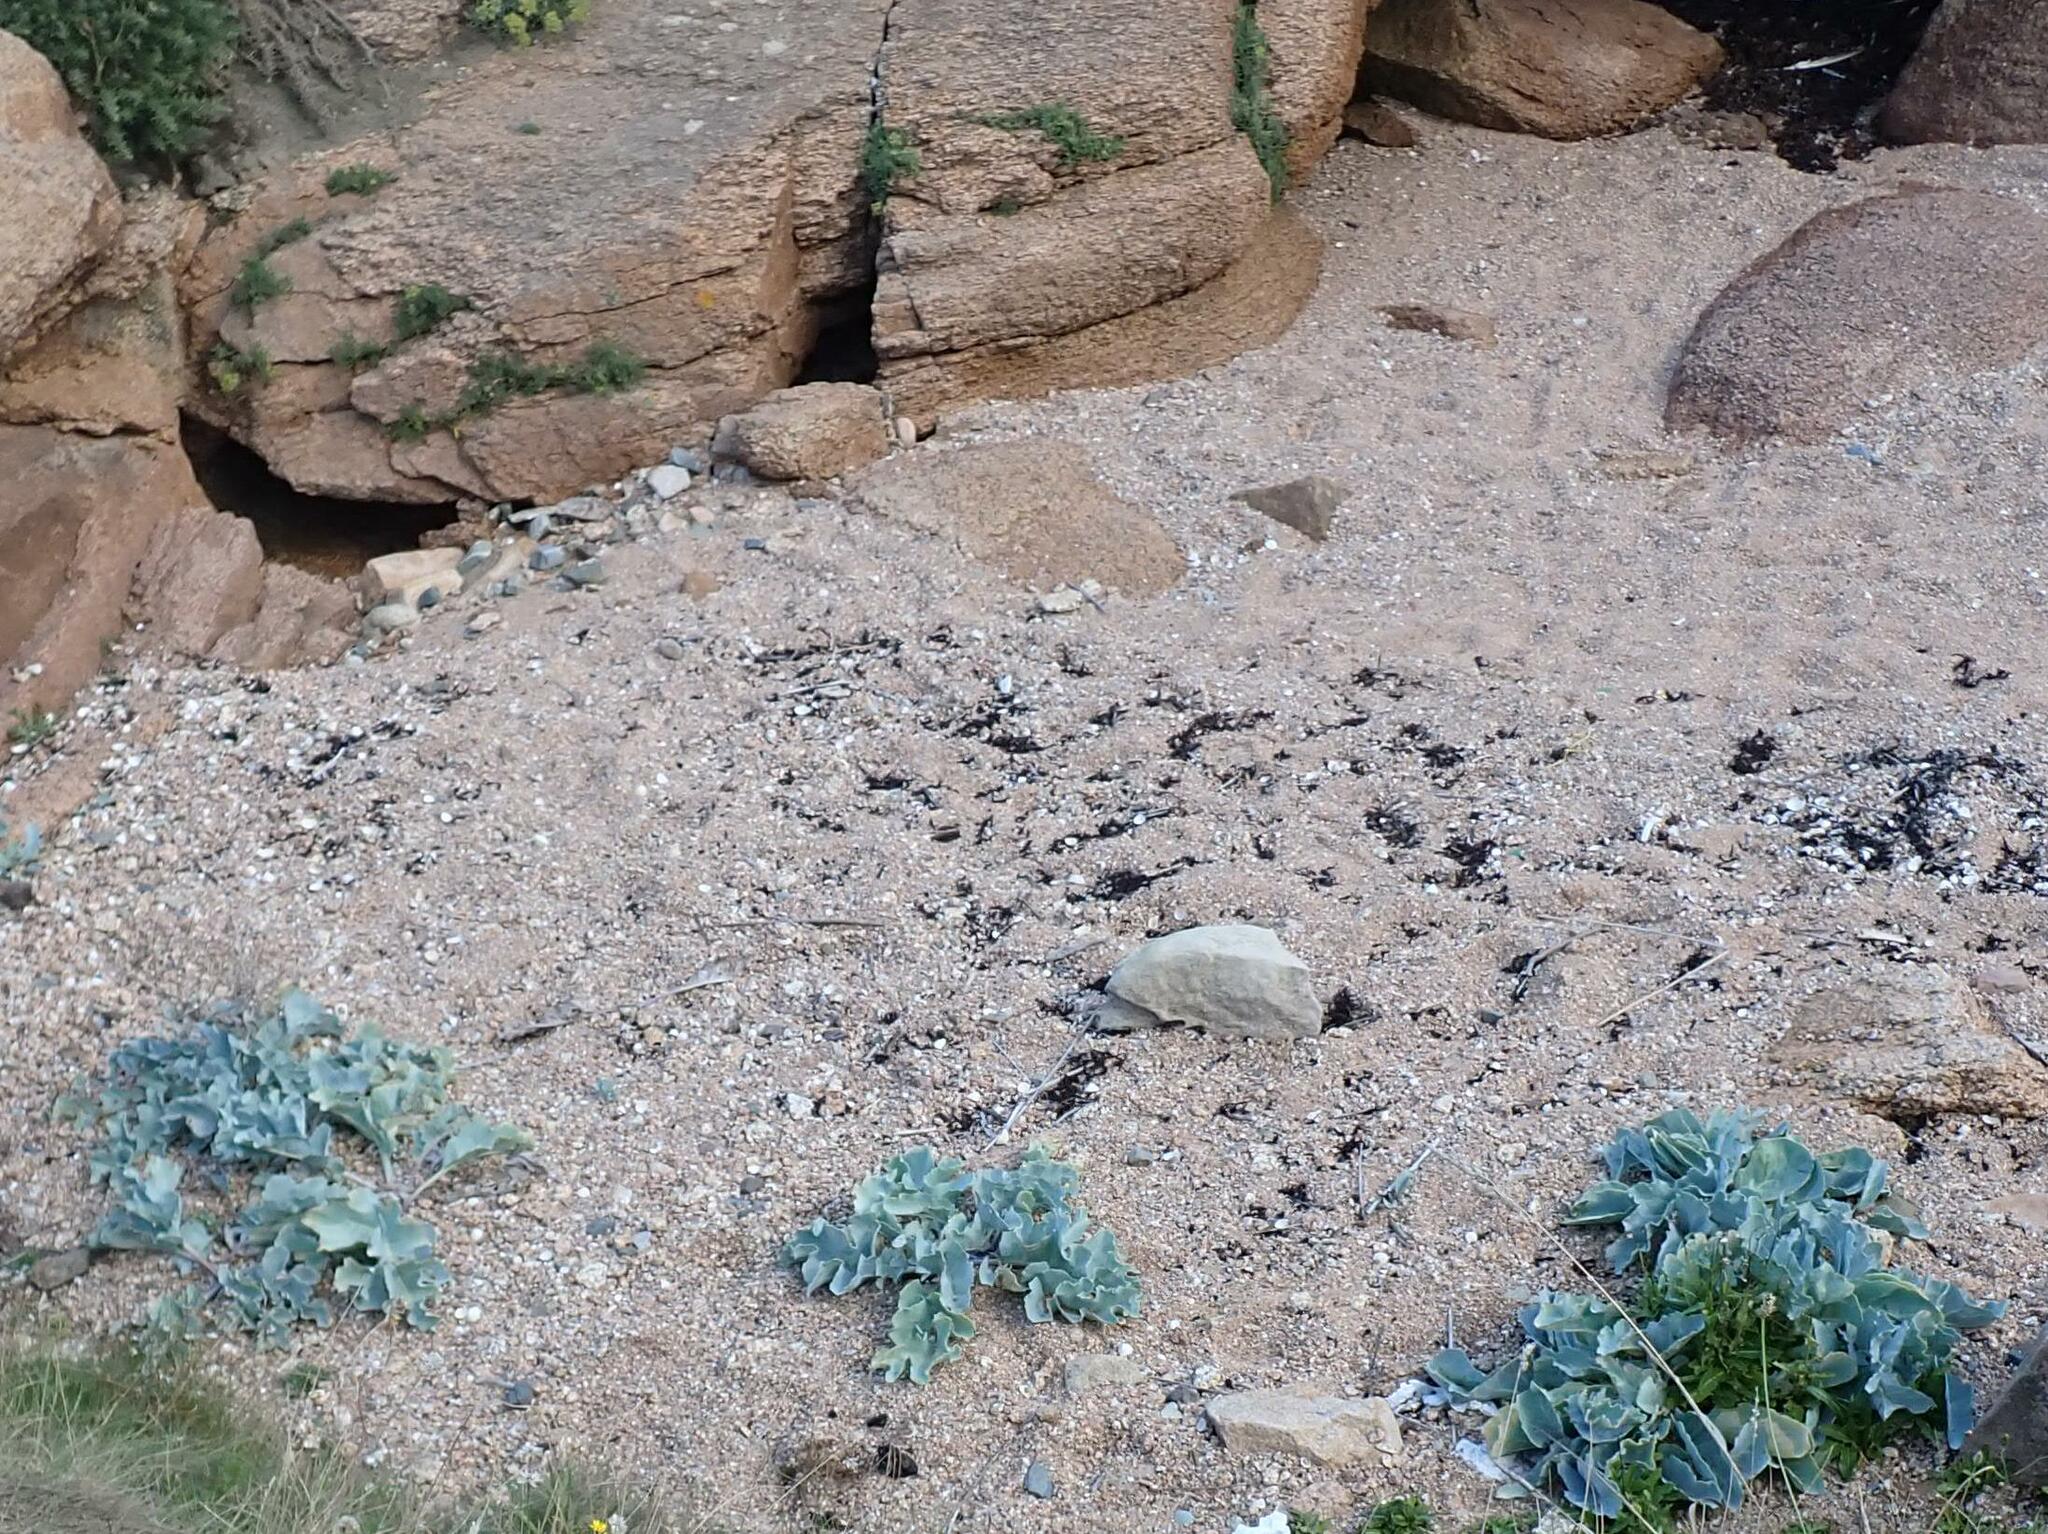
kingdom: Plantae
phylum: Tracheophyta
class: Magnoliopsida
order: Brassicales
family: Brassicaceae
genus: Crambe
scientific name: Crambe maritima
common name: Sea-kale
